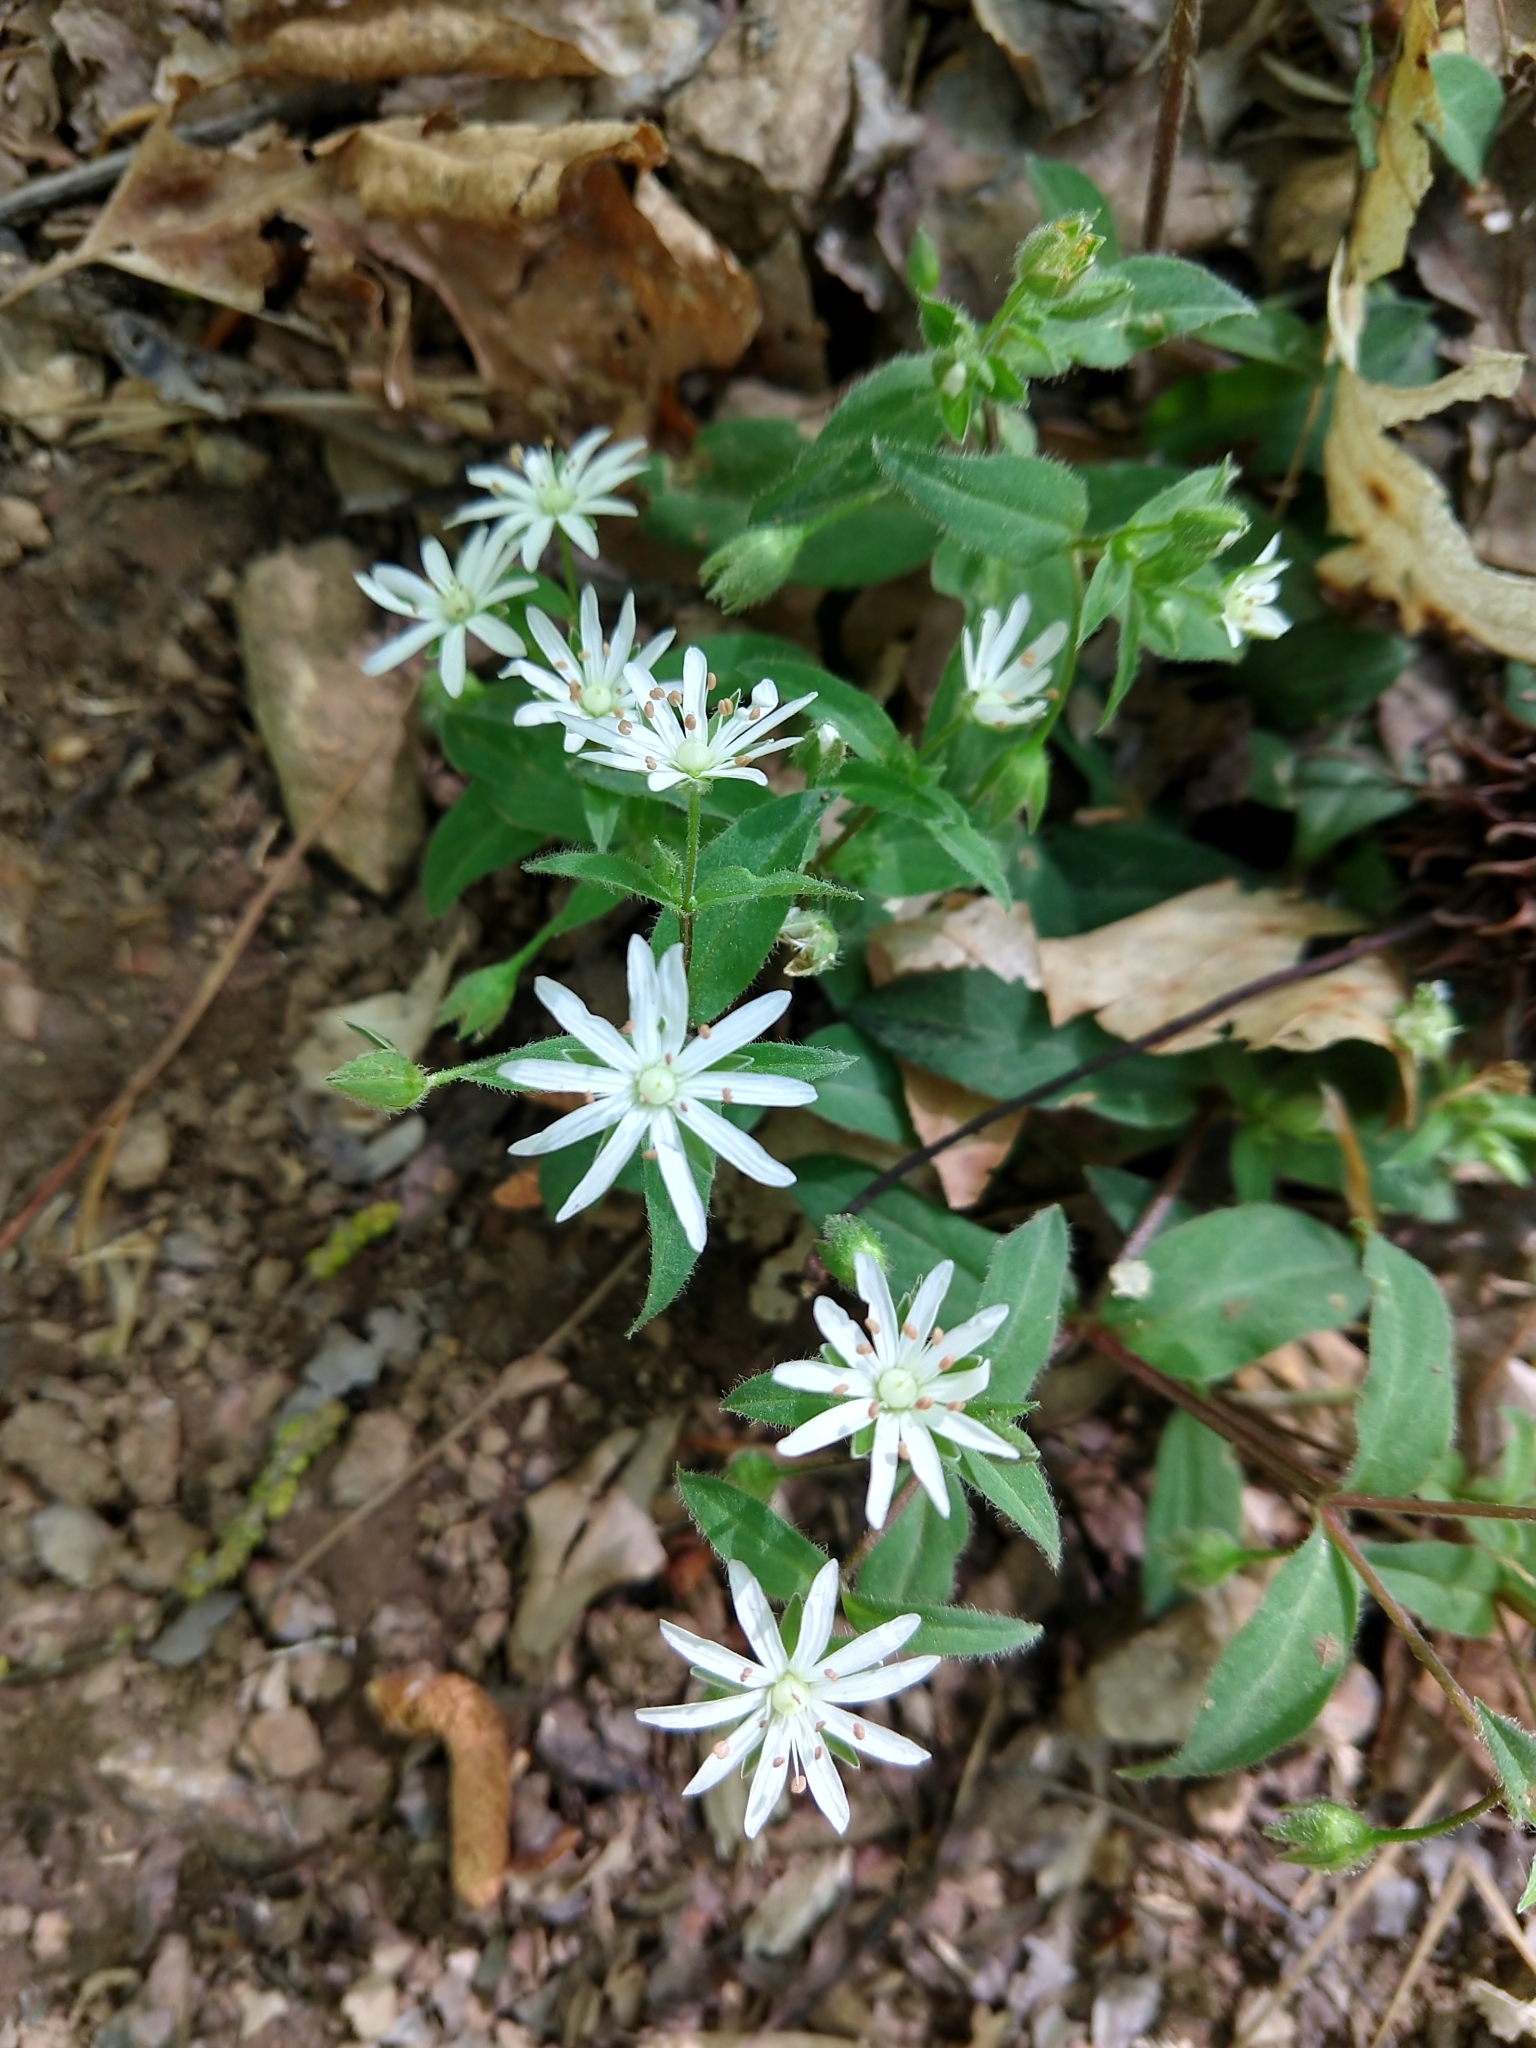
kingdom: Plantae
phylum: Tracheophyta
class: Magnoliopsida
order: Caryophyllales
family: Caryophyllaceae
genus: Stellaria
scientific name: Stellaria pubera
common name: Star chickweed
